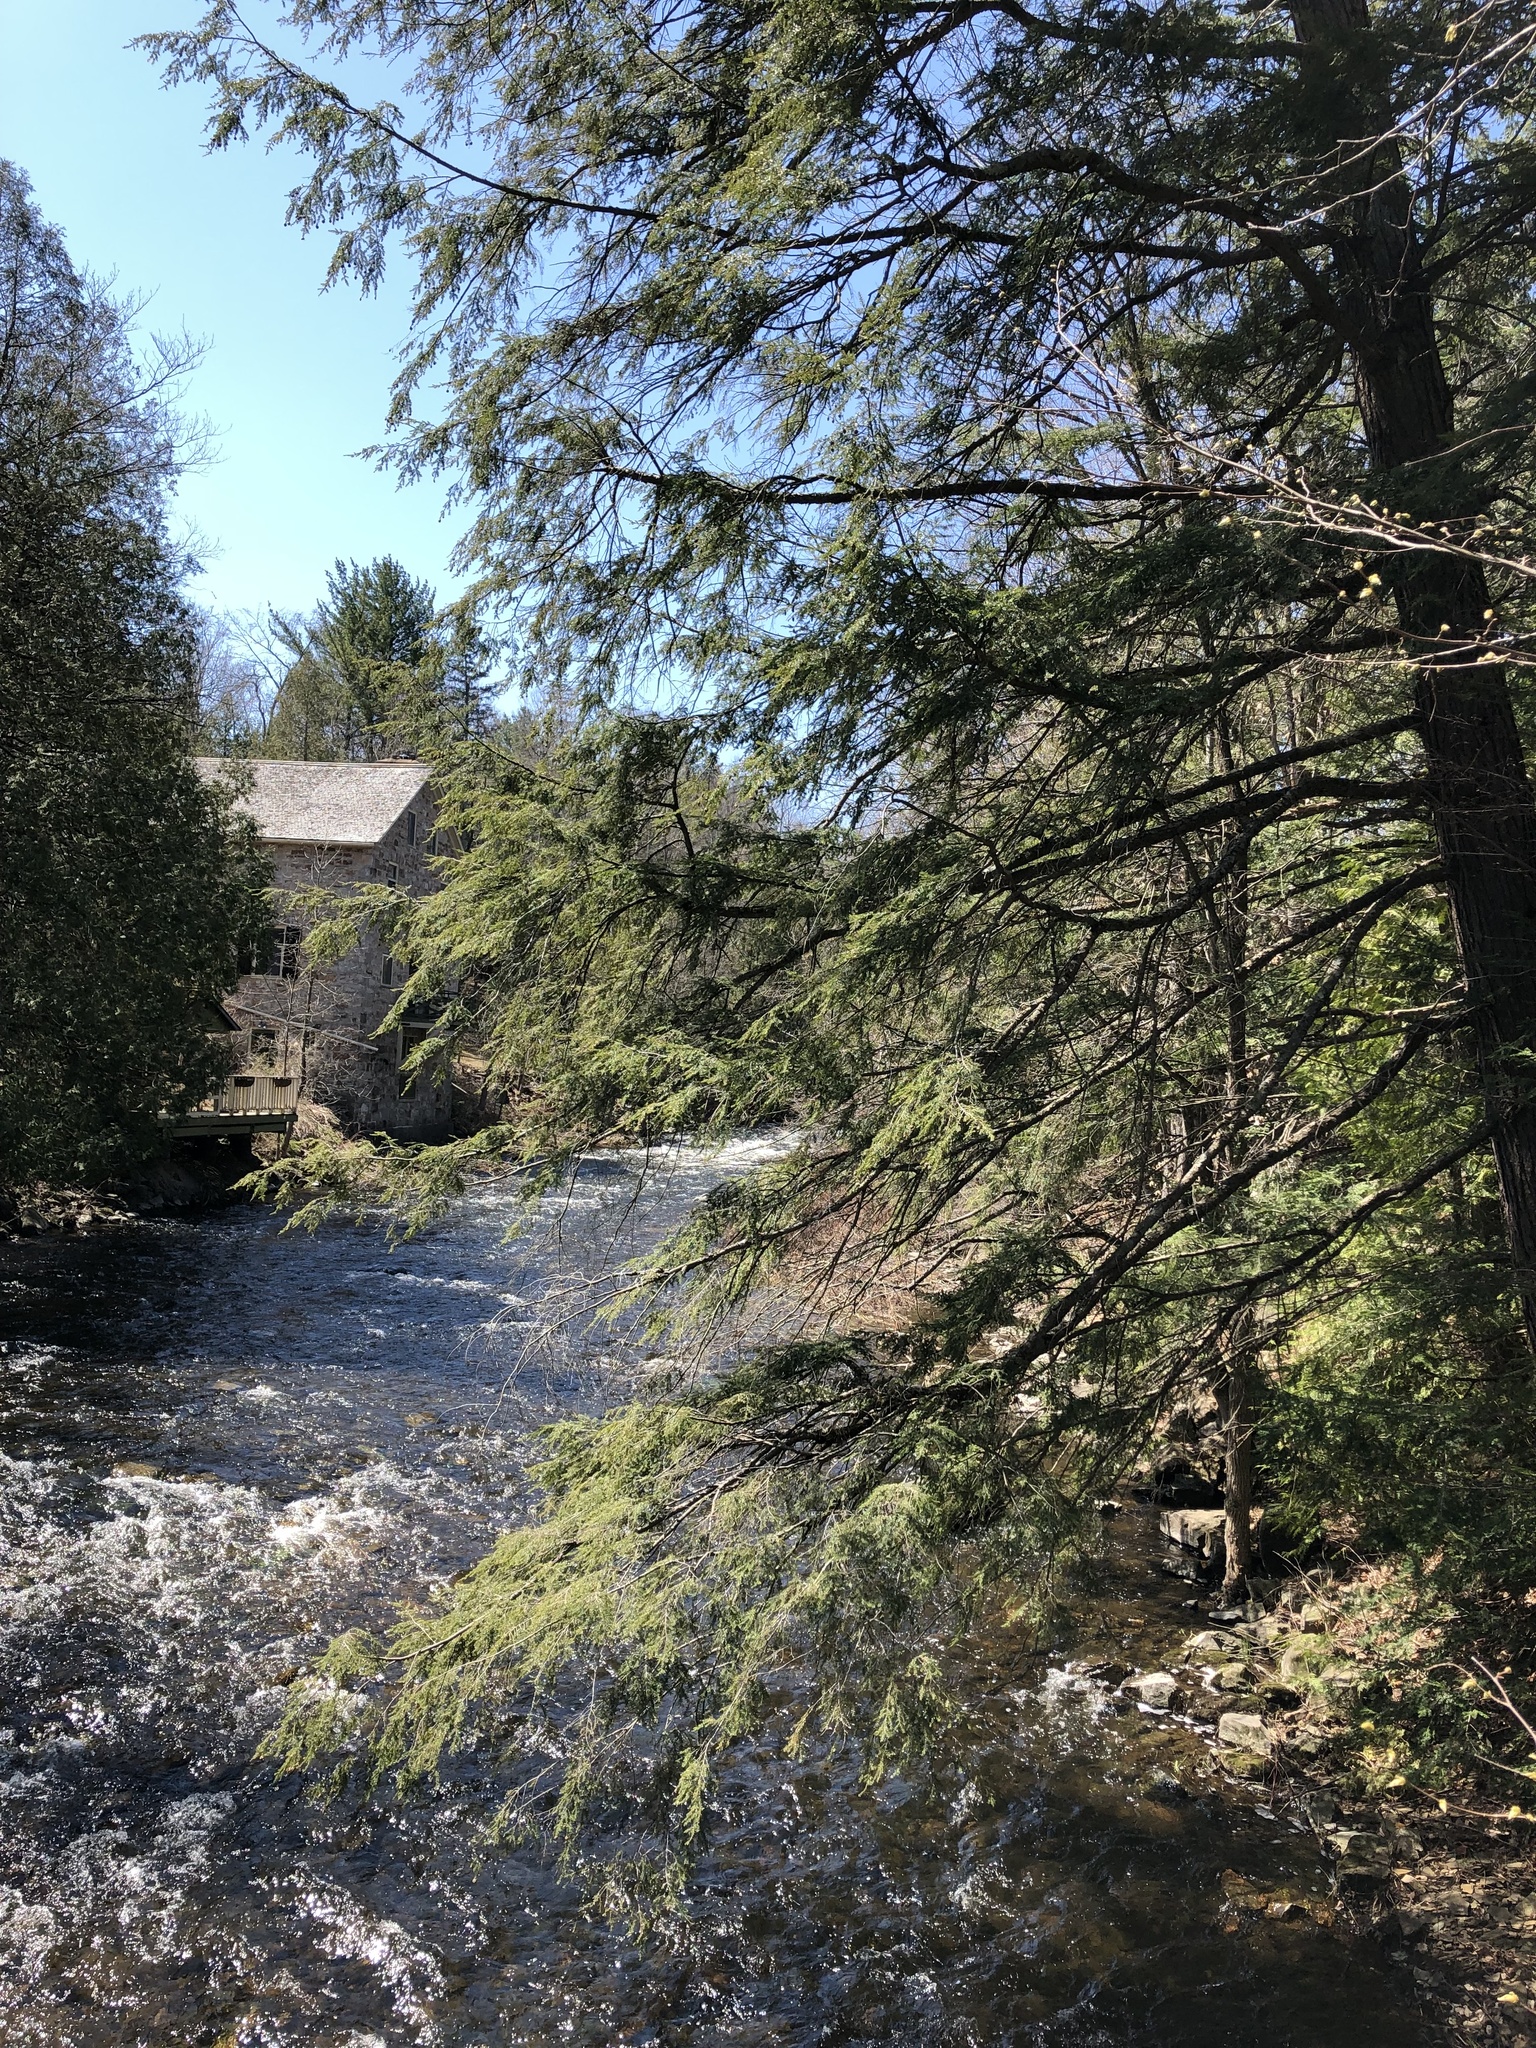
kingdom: Plantae
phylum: Tracheophyta
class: Pinopsida
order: Pinales
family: Pinaceae
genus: Tsuga
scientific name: Tsuga canadensis
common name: Eastern hemlock
